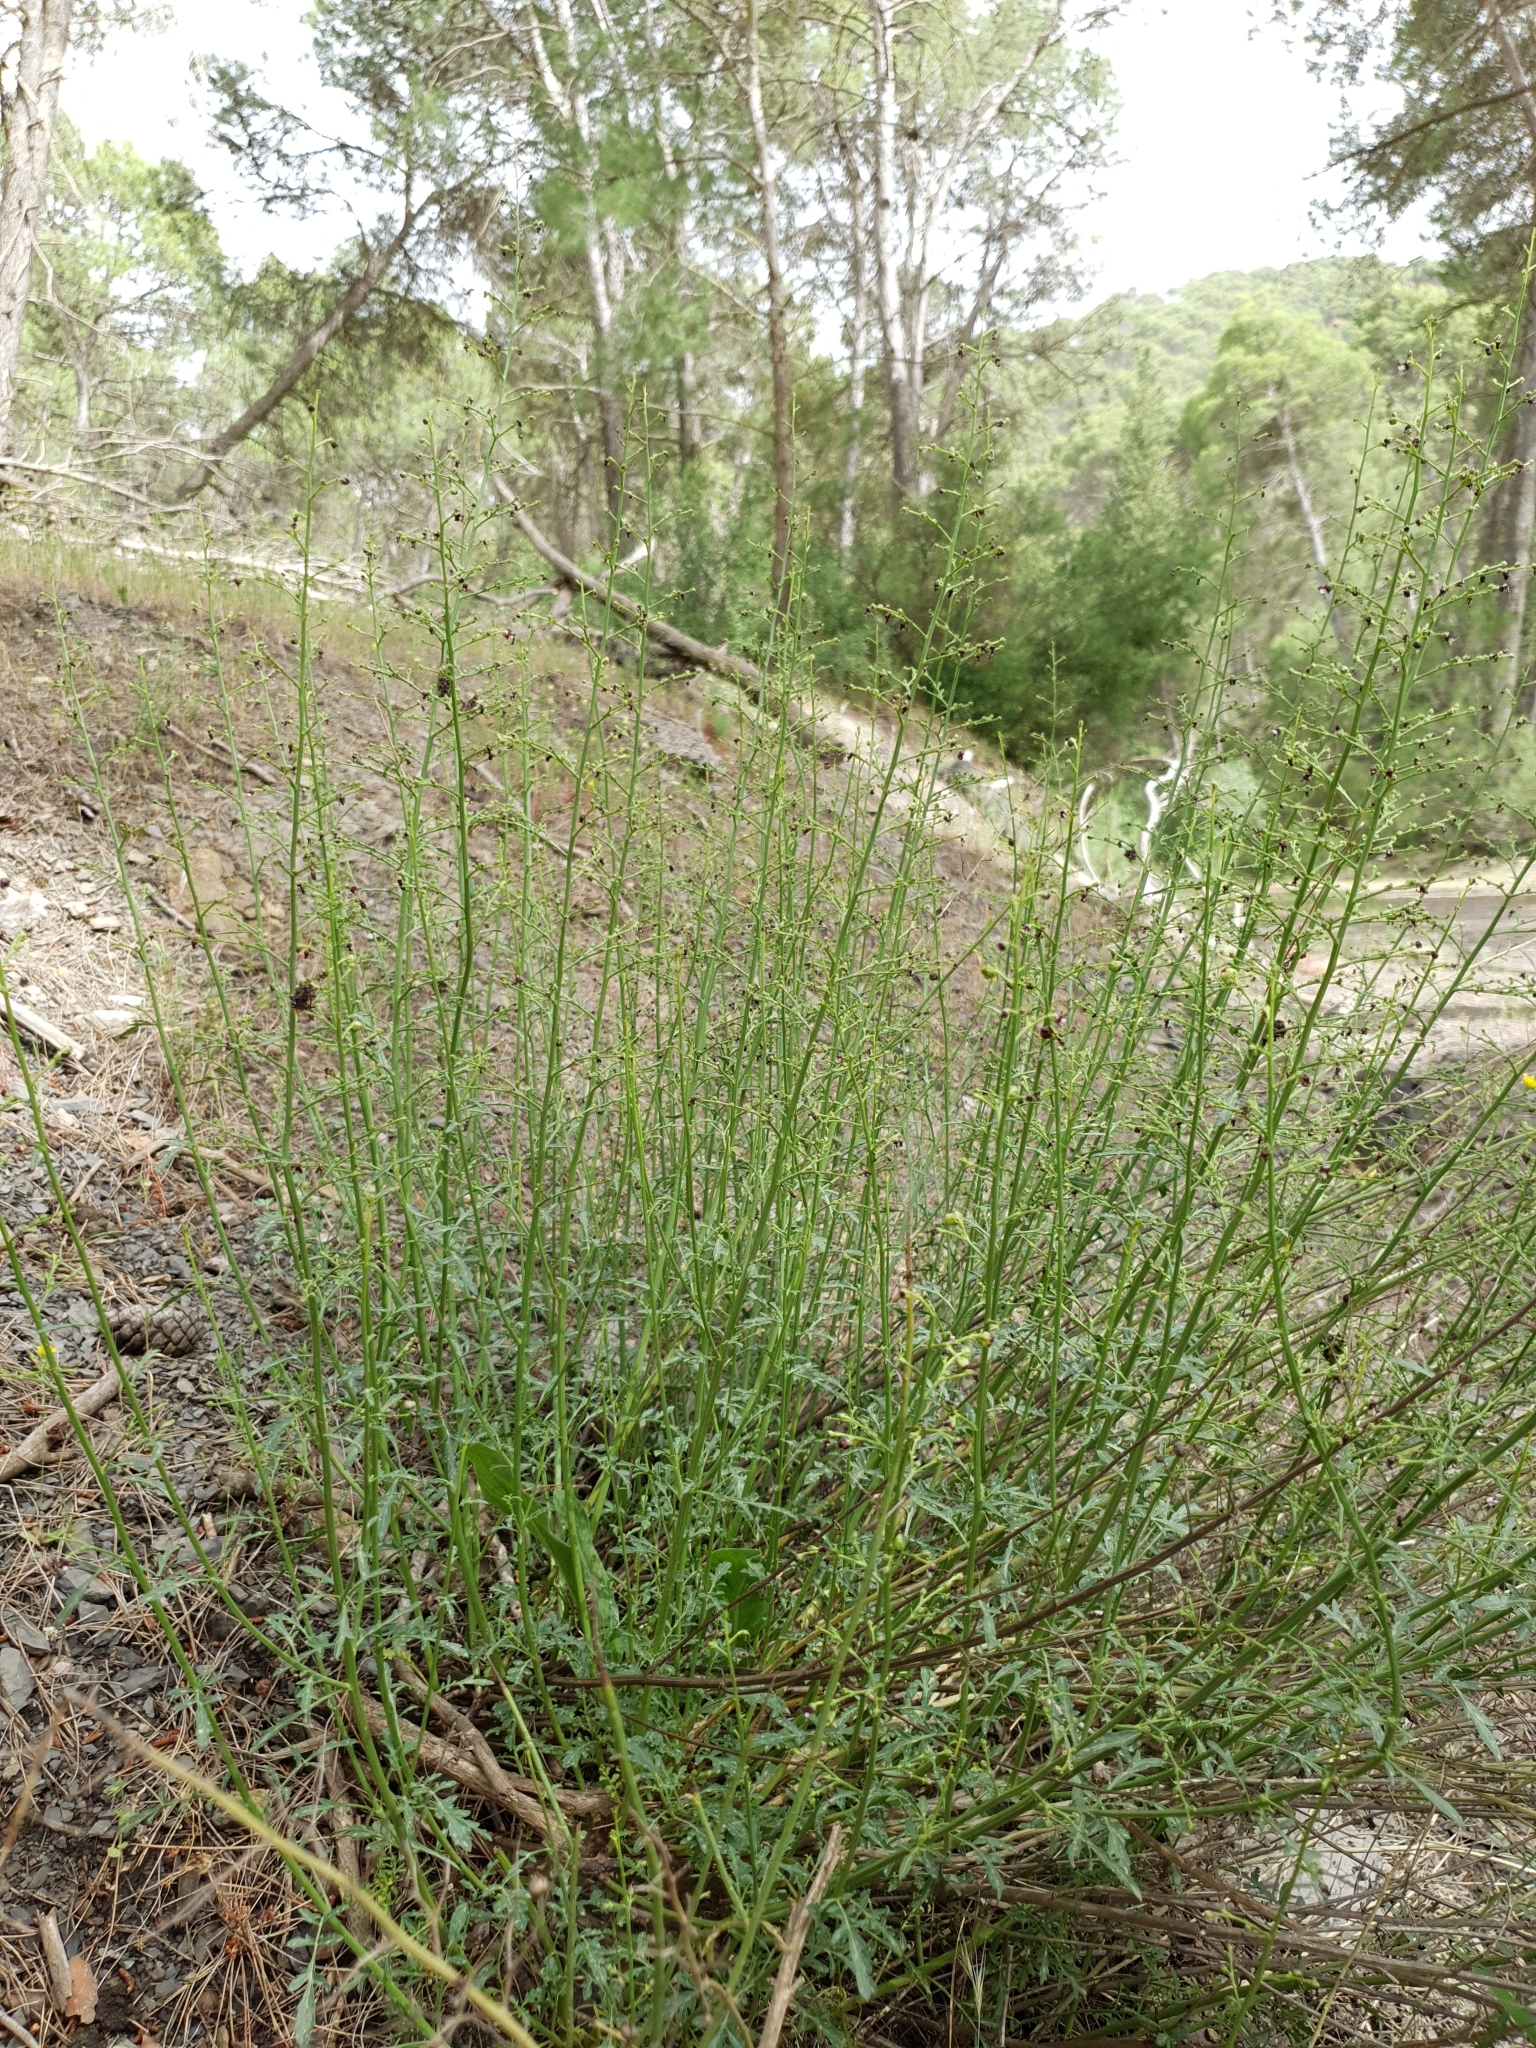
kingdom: Plantae
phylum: Tracheophyta
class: Magnoliopsida
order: Lamiales
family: Scrophulariaceae
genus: Scrophularia
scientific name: Scrophularia canina
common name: French figwort
